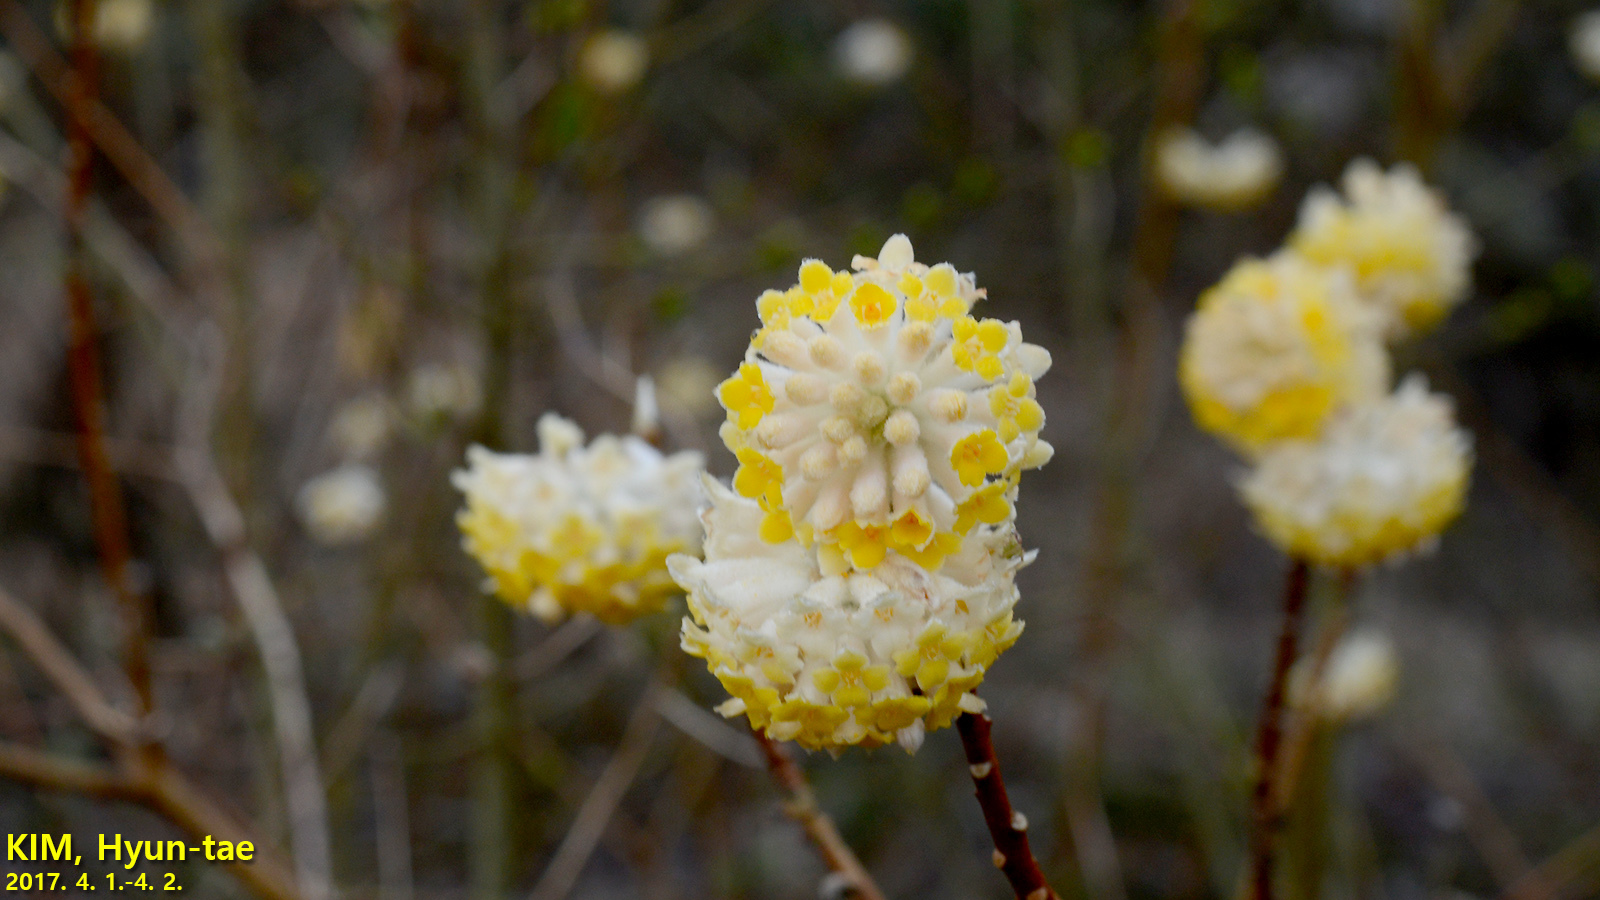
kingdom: Plantae
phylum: Tracheophyta
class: Magnoliopsida
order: Malvales
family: Thymelaeaceae
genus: Edgeworthia
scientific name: Edgeworthia chrysantha
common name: Oriental paperbush
